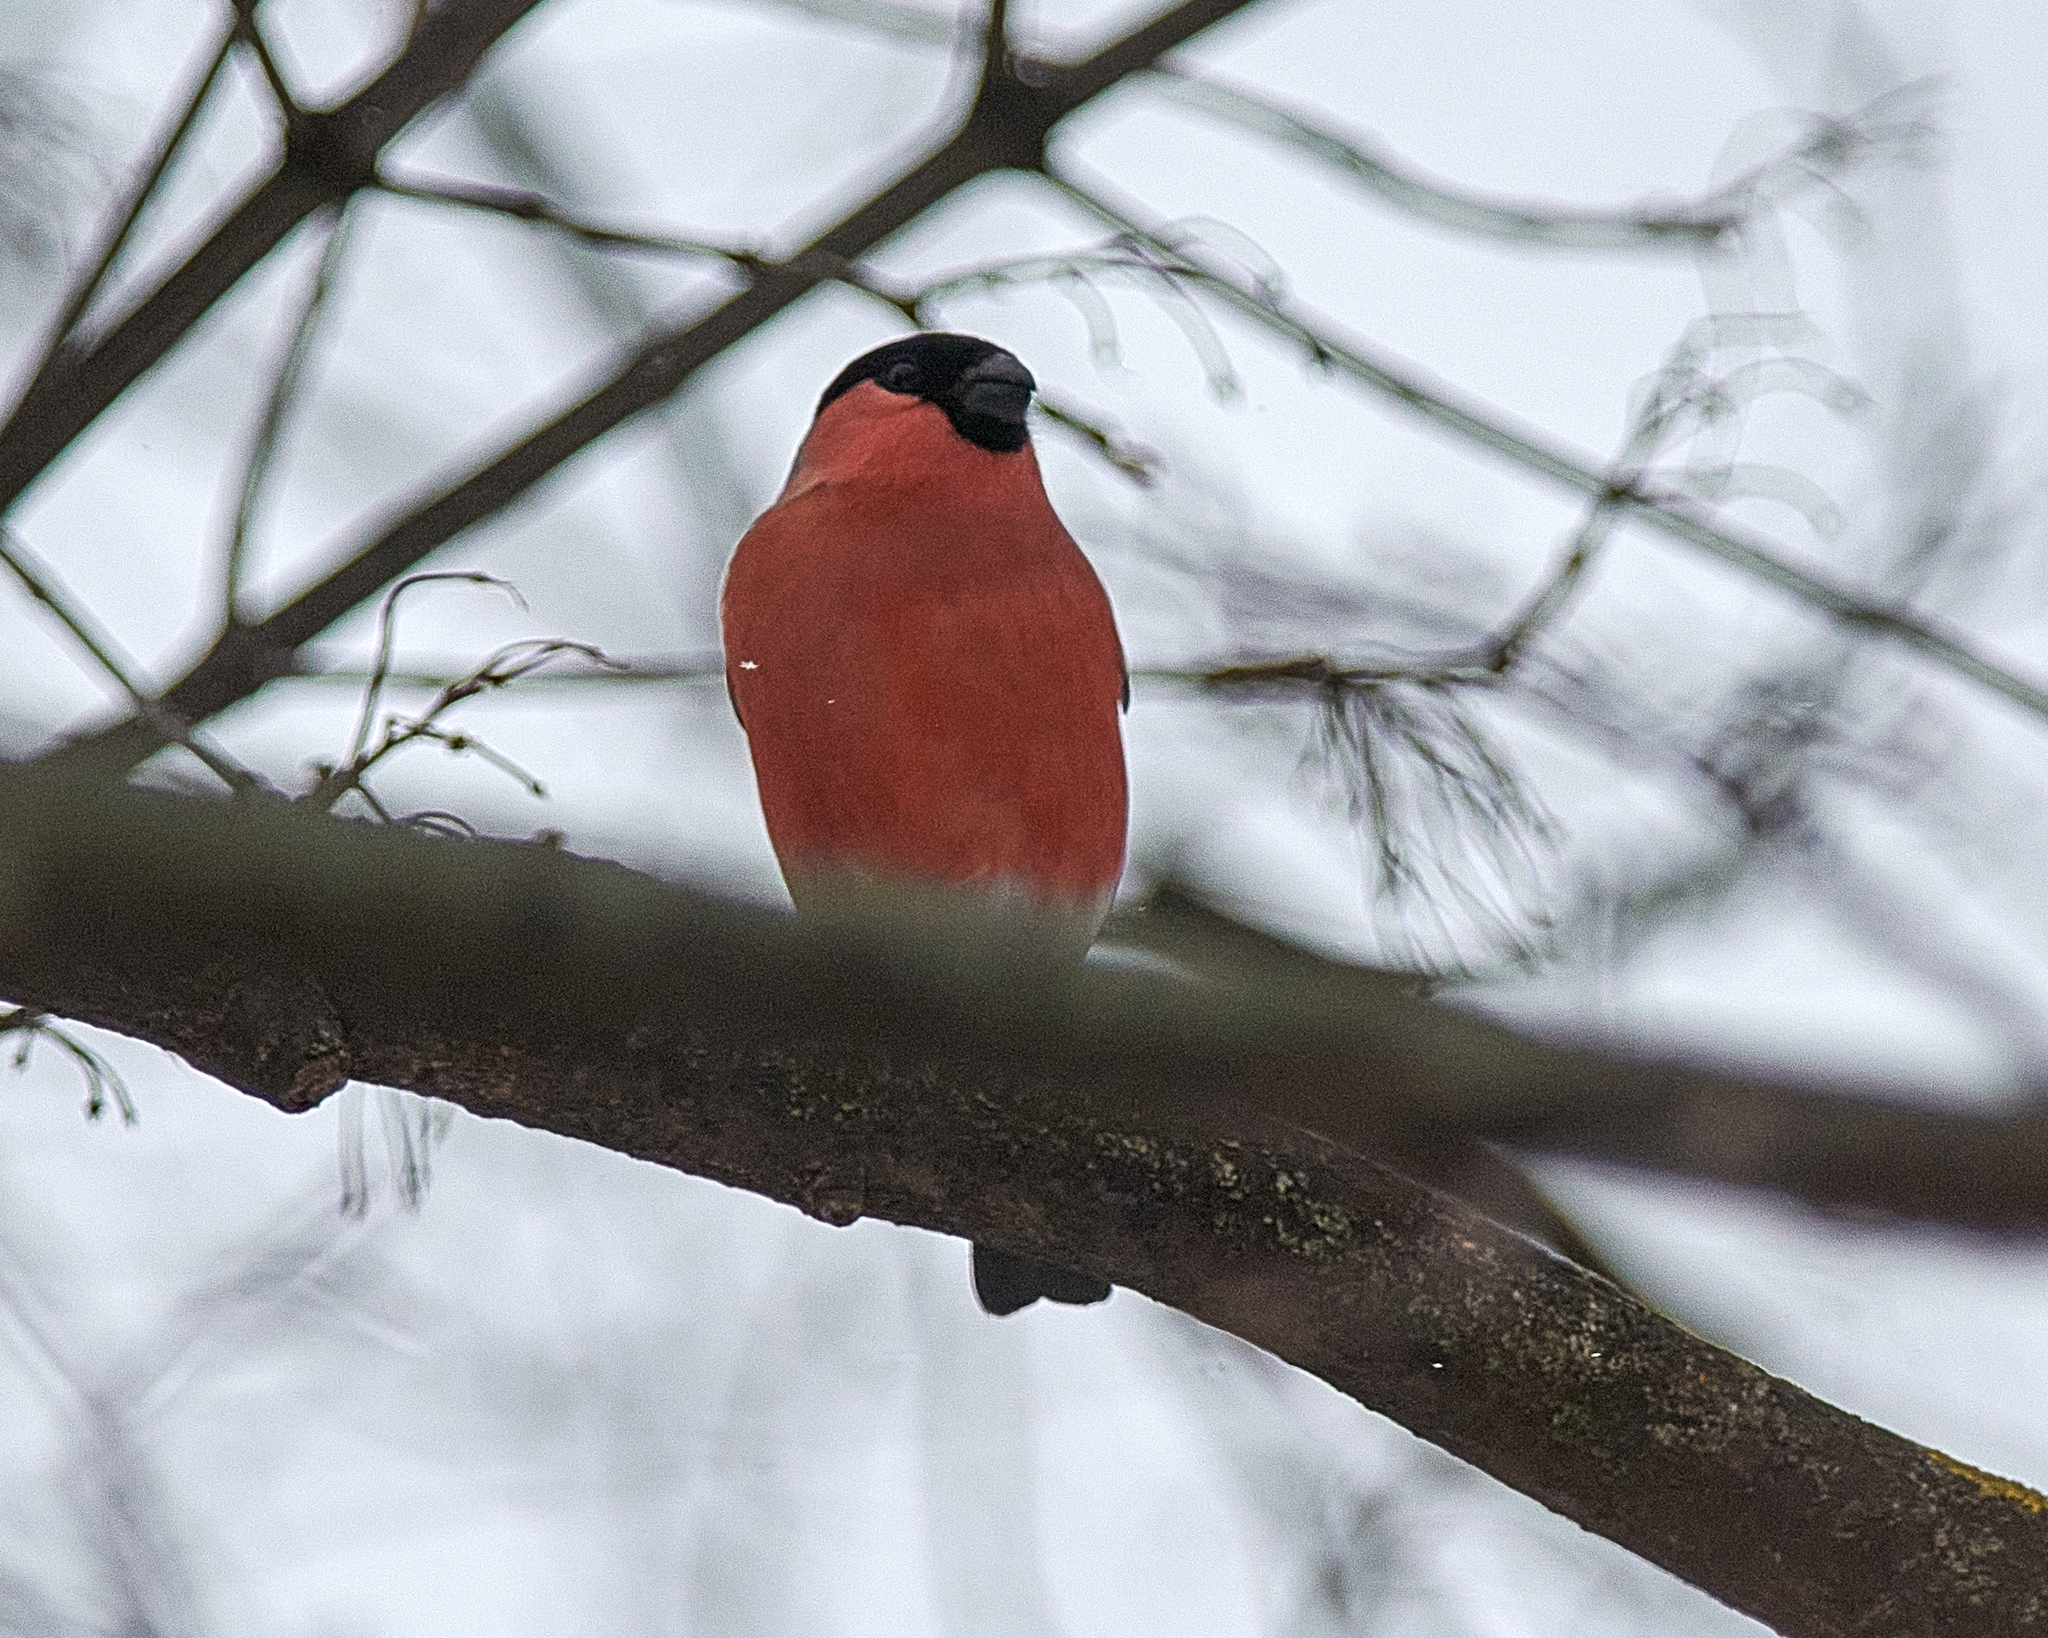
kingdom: Animalia
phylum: Chordata
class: Aves
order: Passeriformes
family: Fringillidae
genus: Pyrrhula
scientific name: Pyrrhula pyrrhula
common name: Eurasian bullfinch
